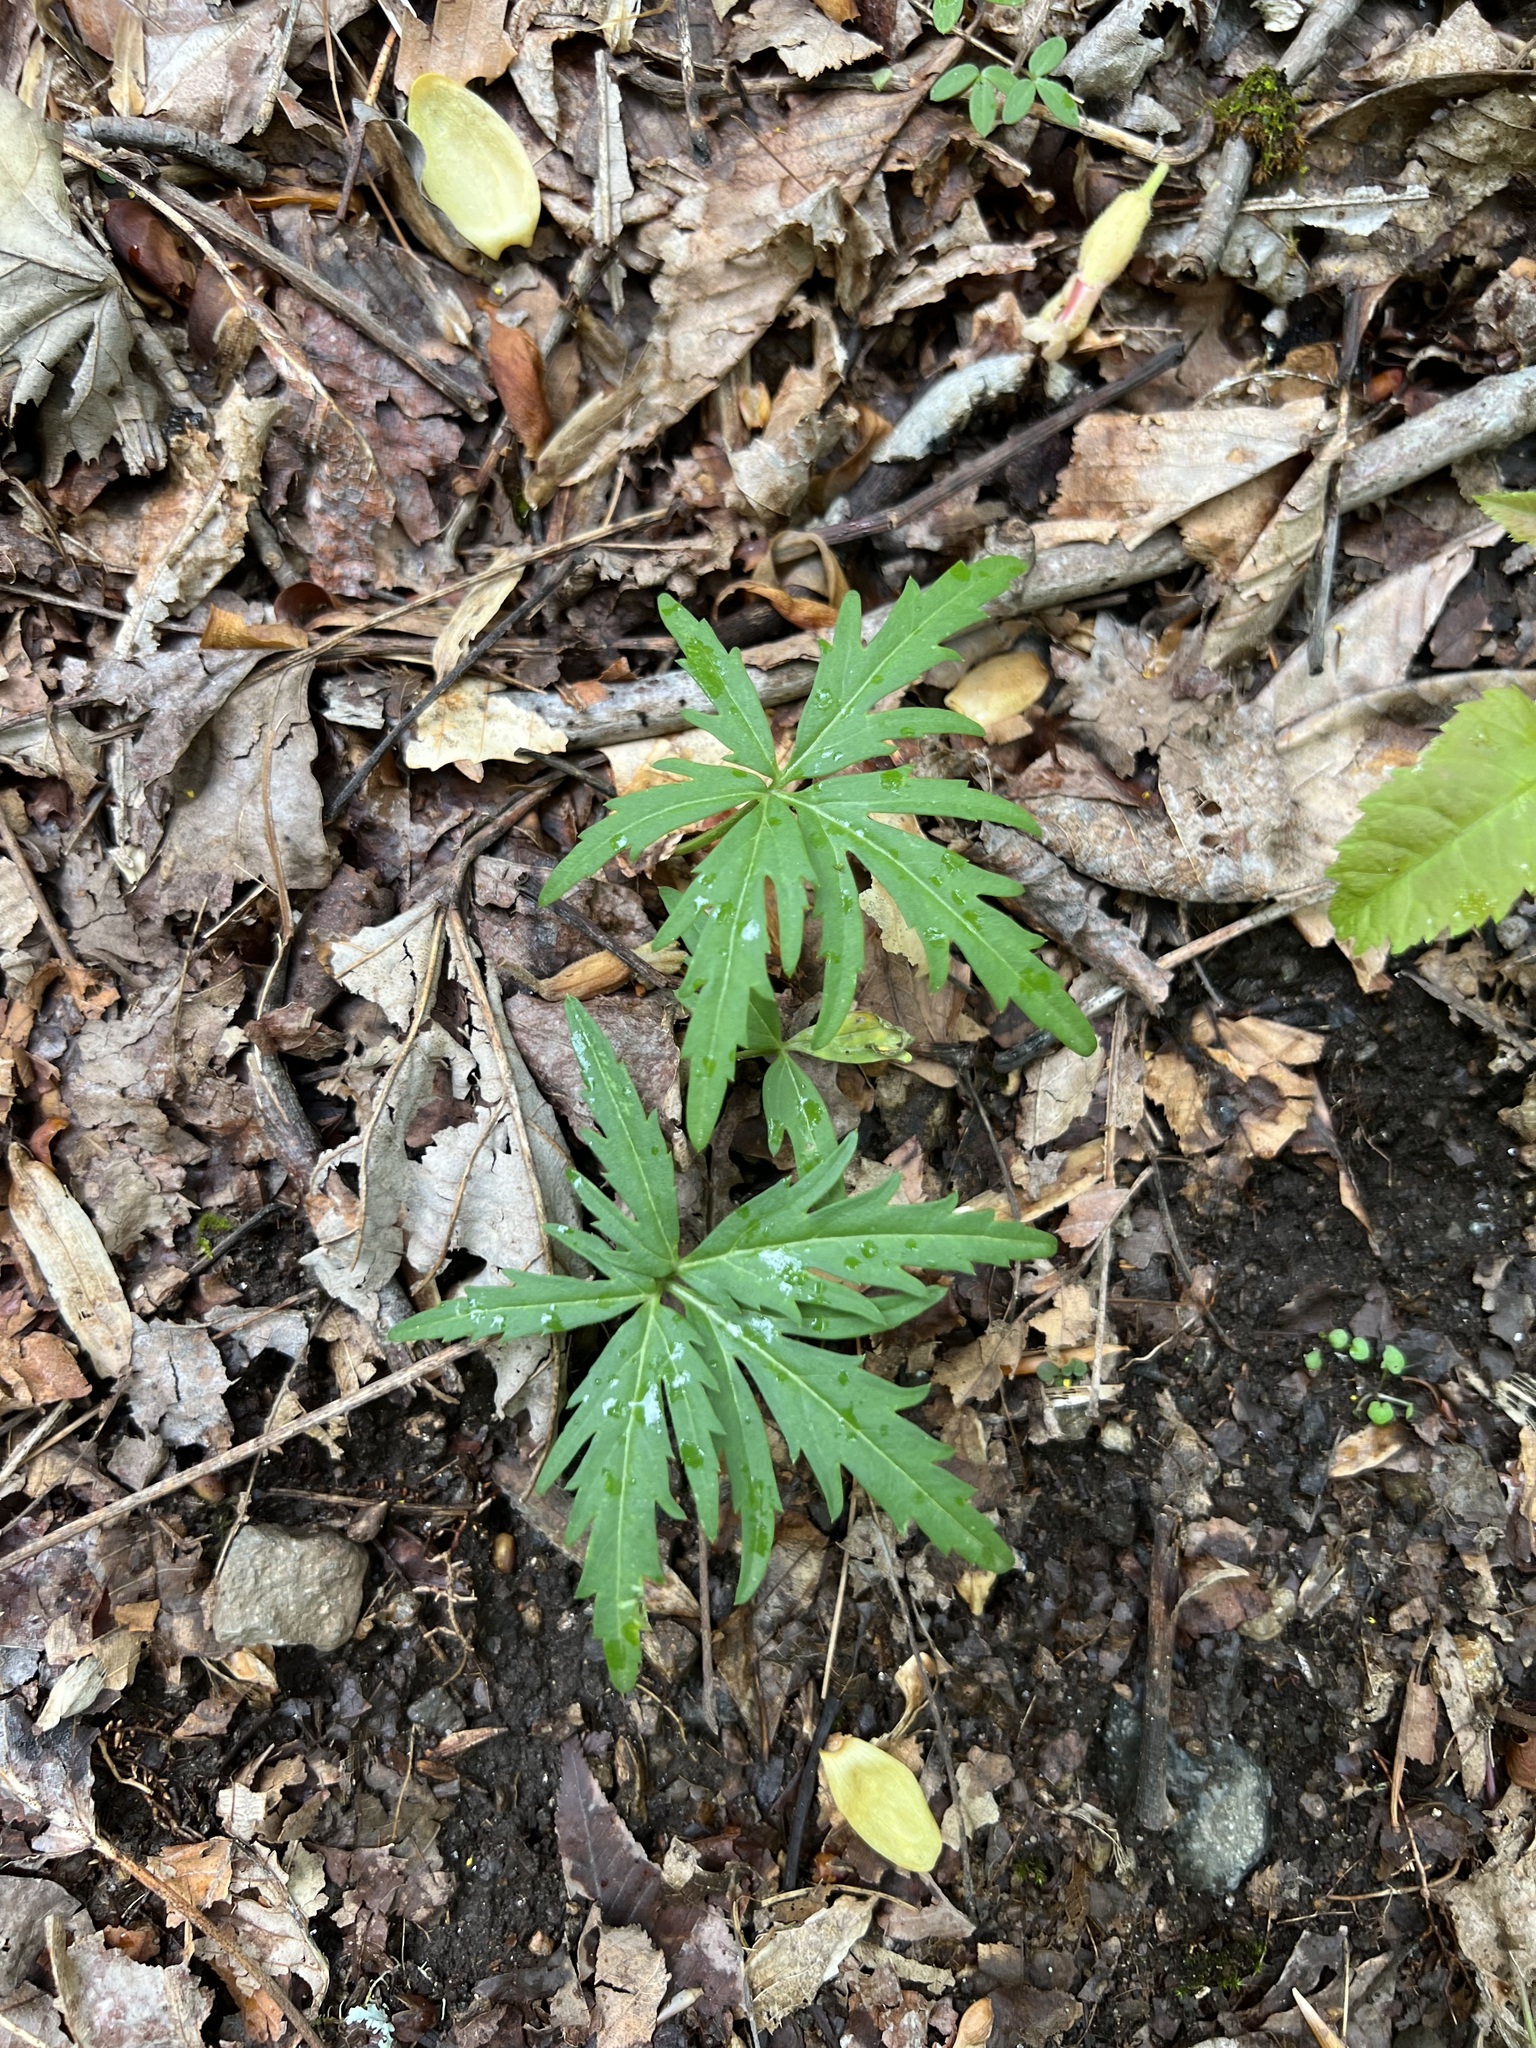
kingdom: Plantae
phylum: Tracheophyta
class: Magnoliopsida
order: Brassicales
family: Brassicaceae
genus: Cardamine
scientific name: Cardamine concatenata
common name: Cut-leaf toothcup
